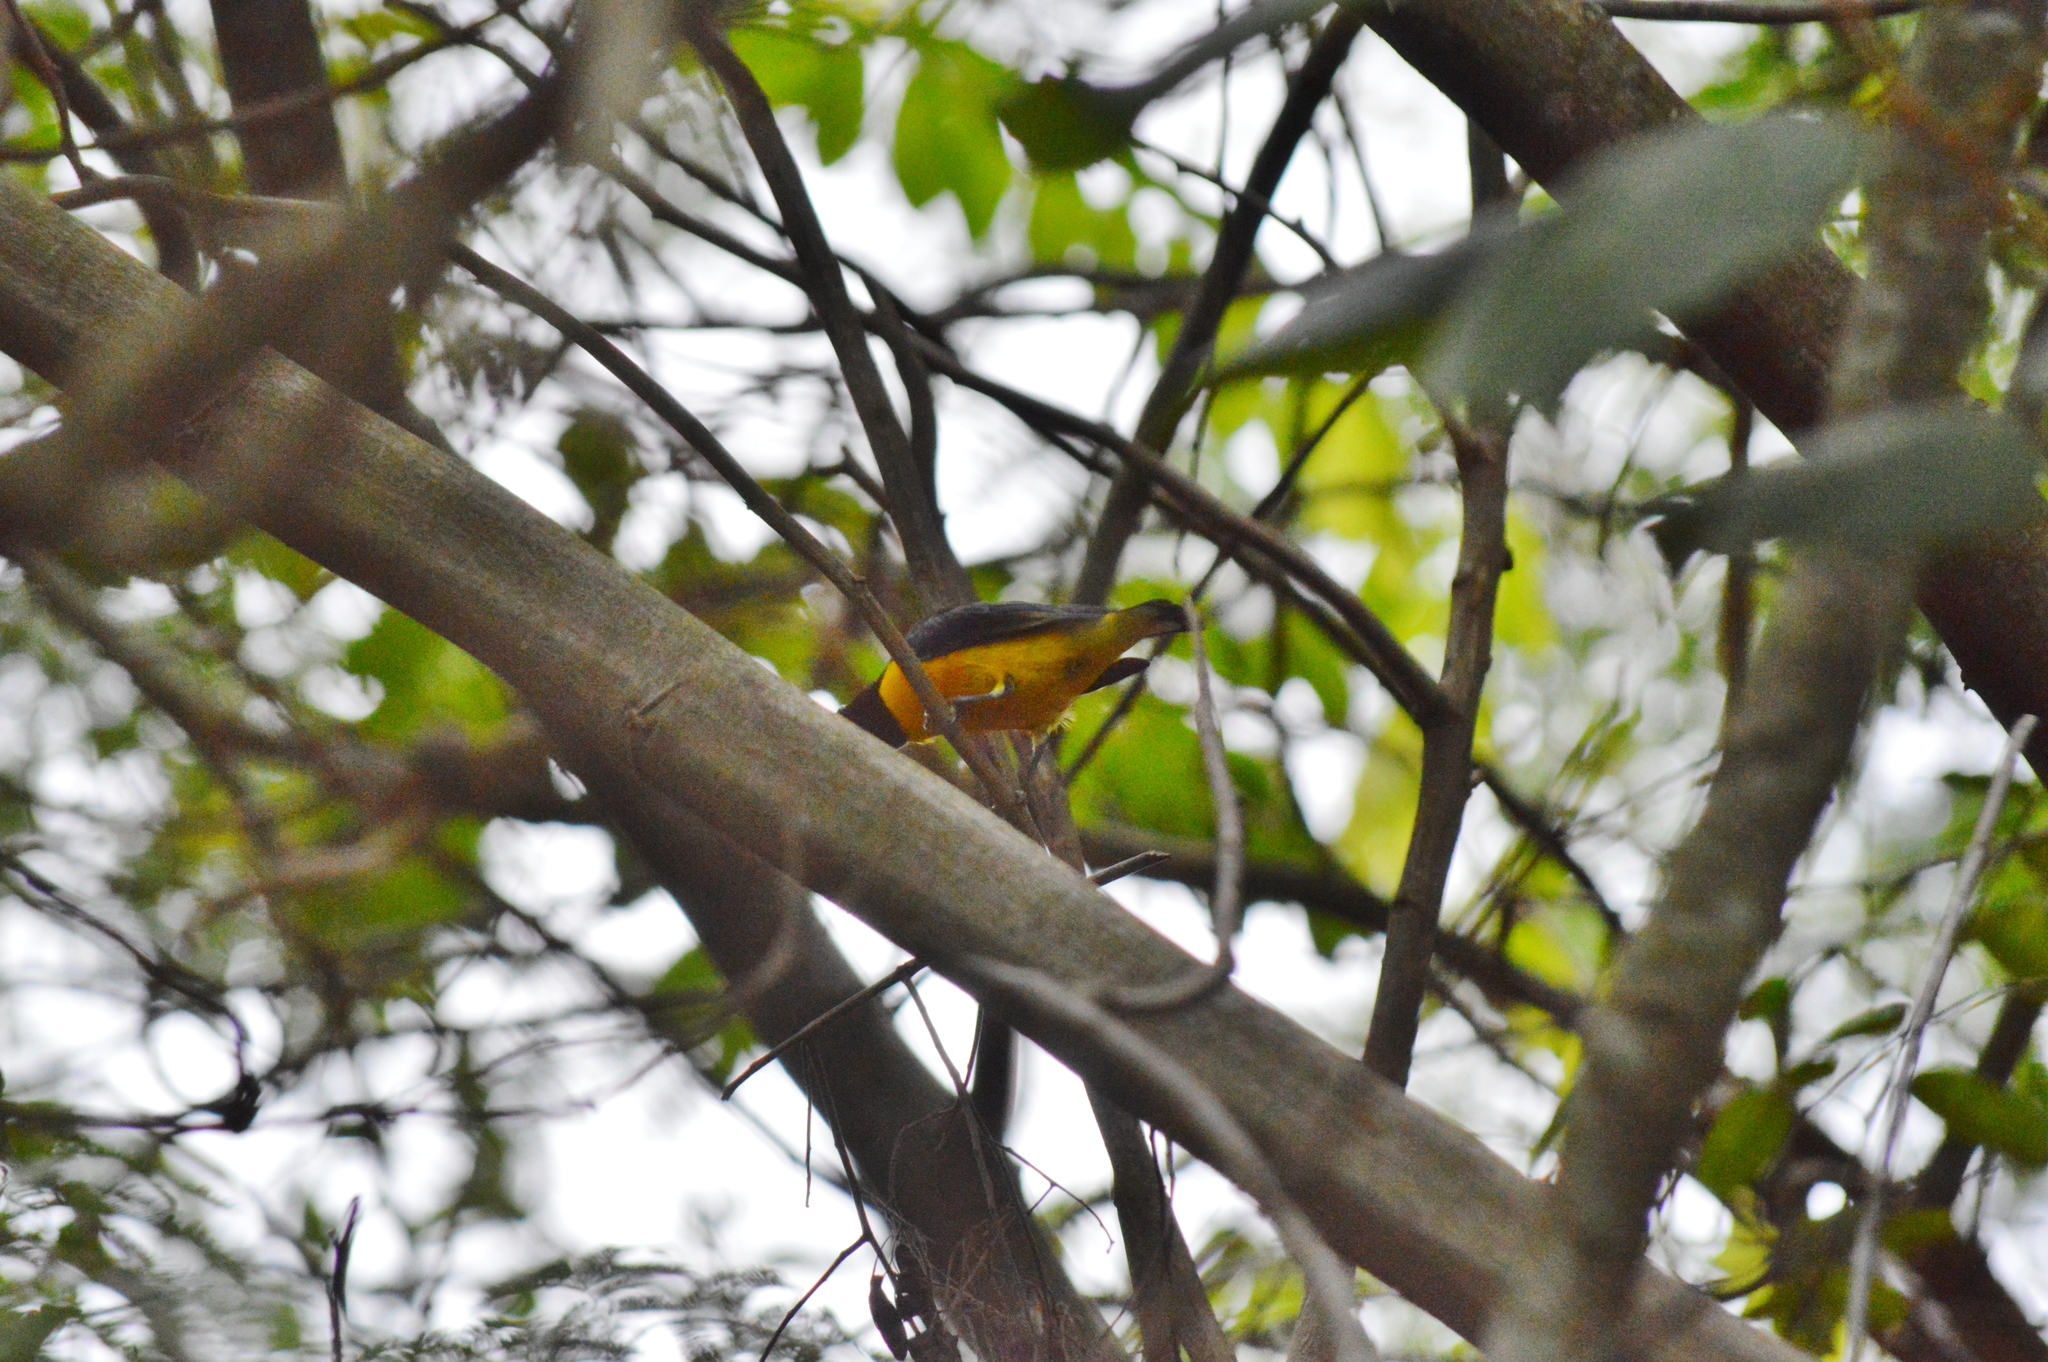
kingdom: Animalia
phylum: Chordata
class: Aves
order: Passeriformes
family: Fringillidae
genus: Euphonia
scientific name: Euphonia chlorotica
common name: Purple-throated euphonia
